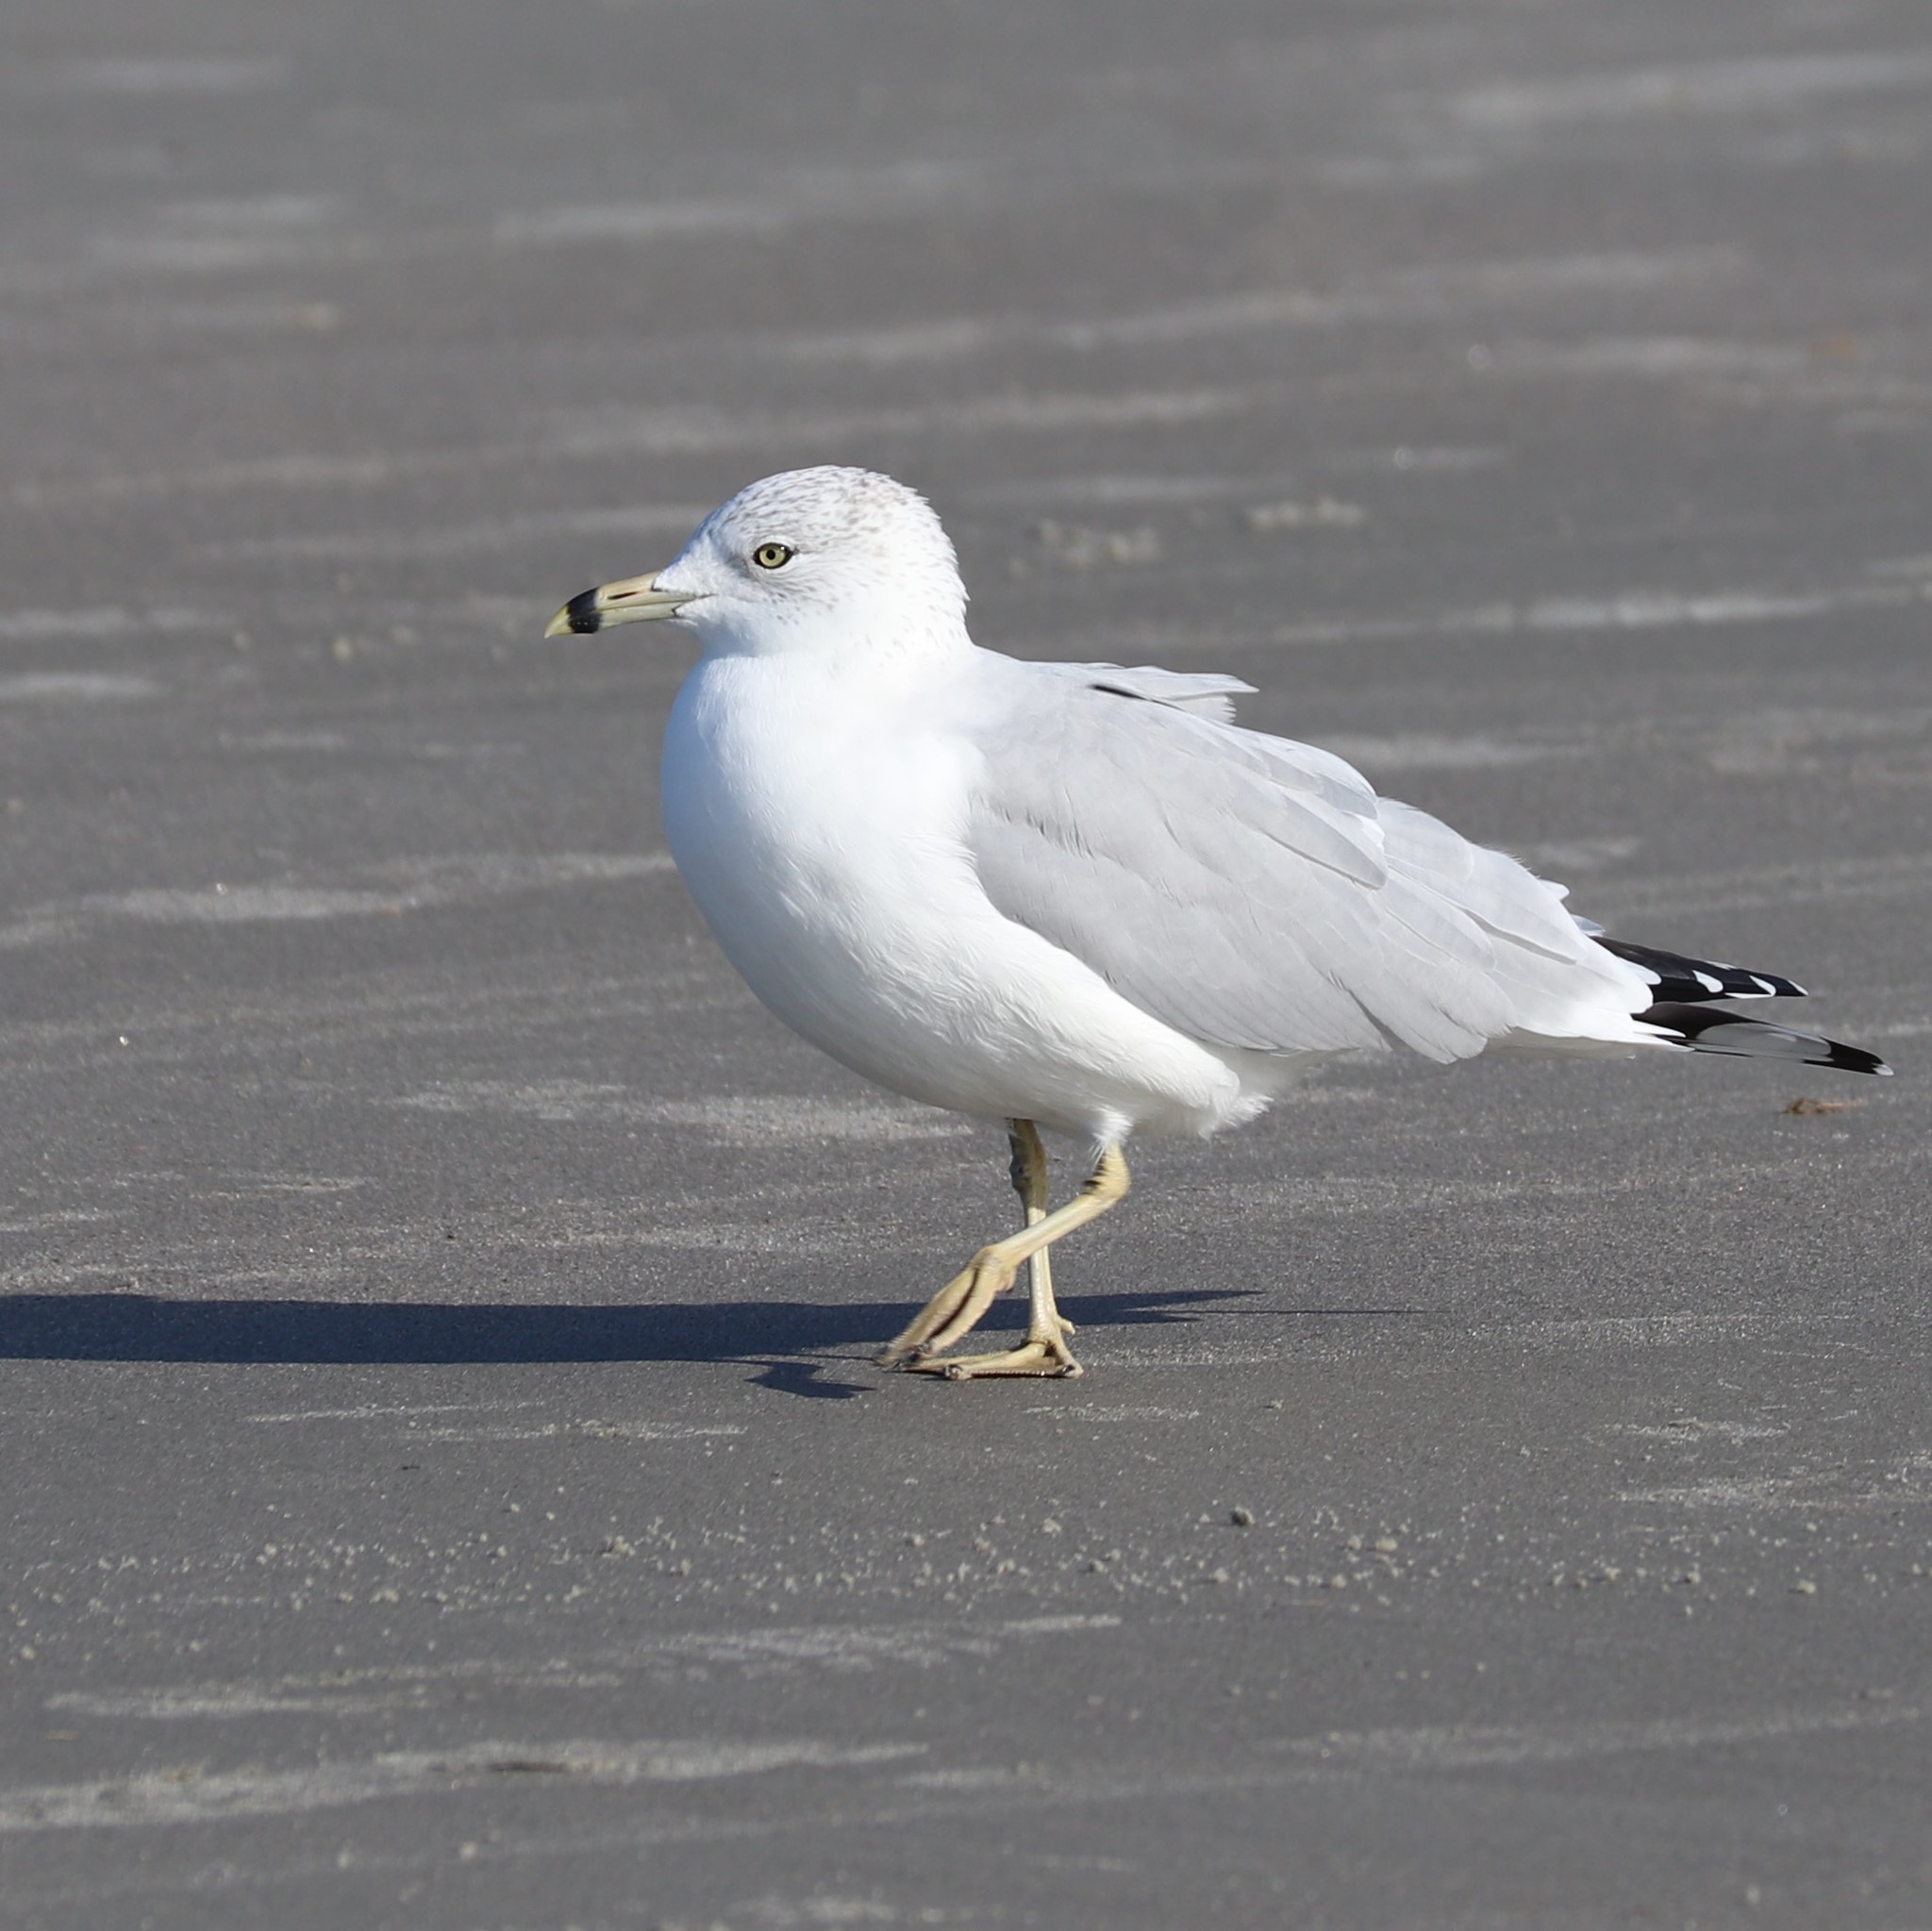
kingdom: Animalia
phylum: Chordata
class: Aves
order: Charadriiformes
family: Laridae
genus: Larus
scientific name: Larus delawarensis
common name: Ring-billed gull
